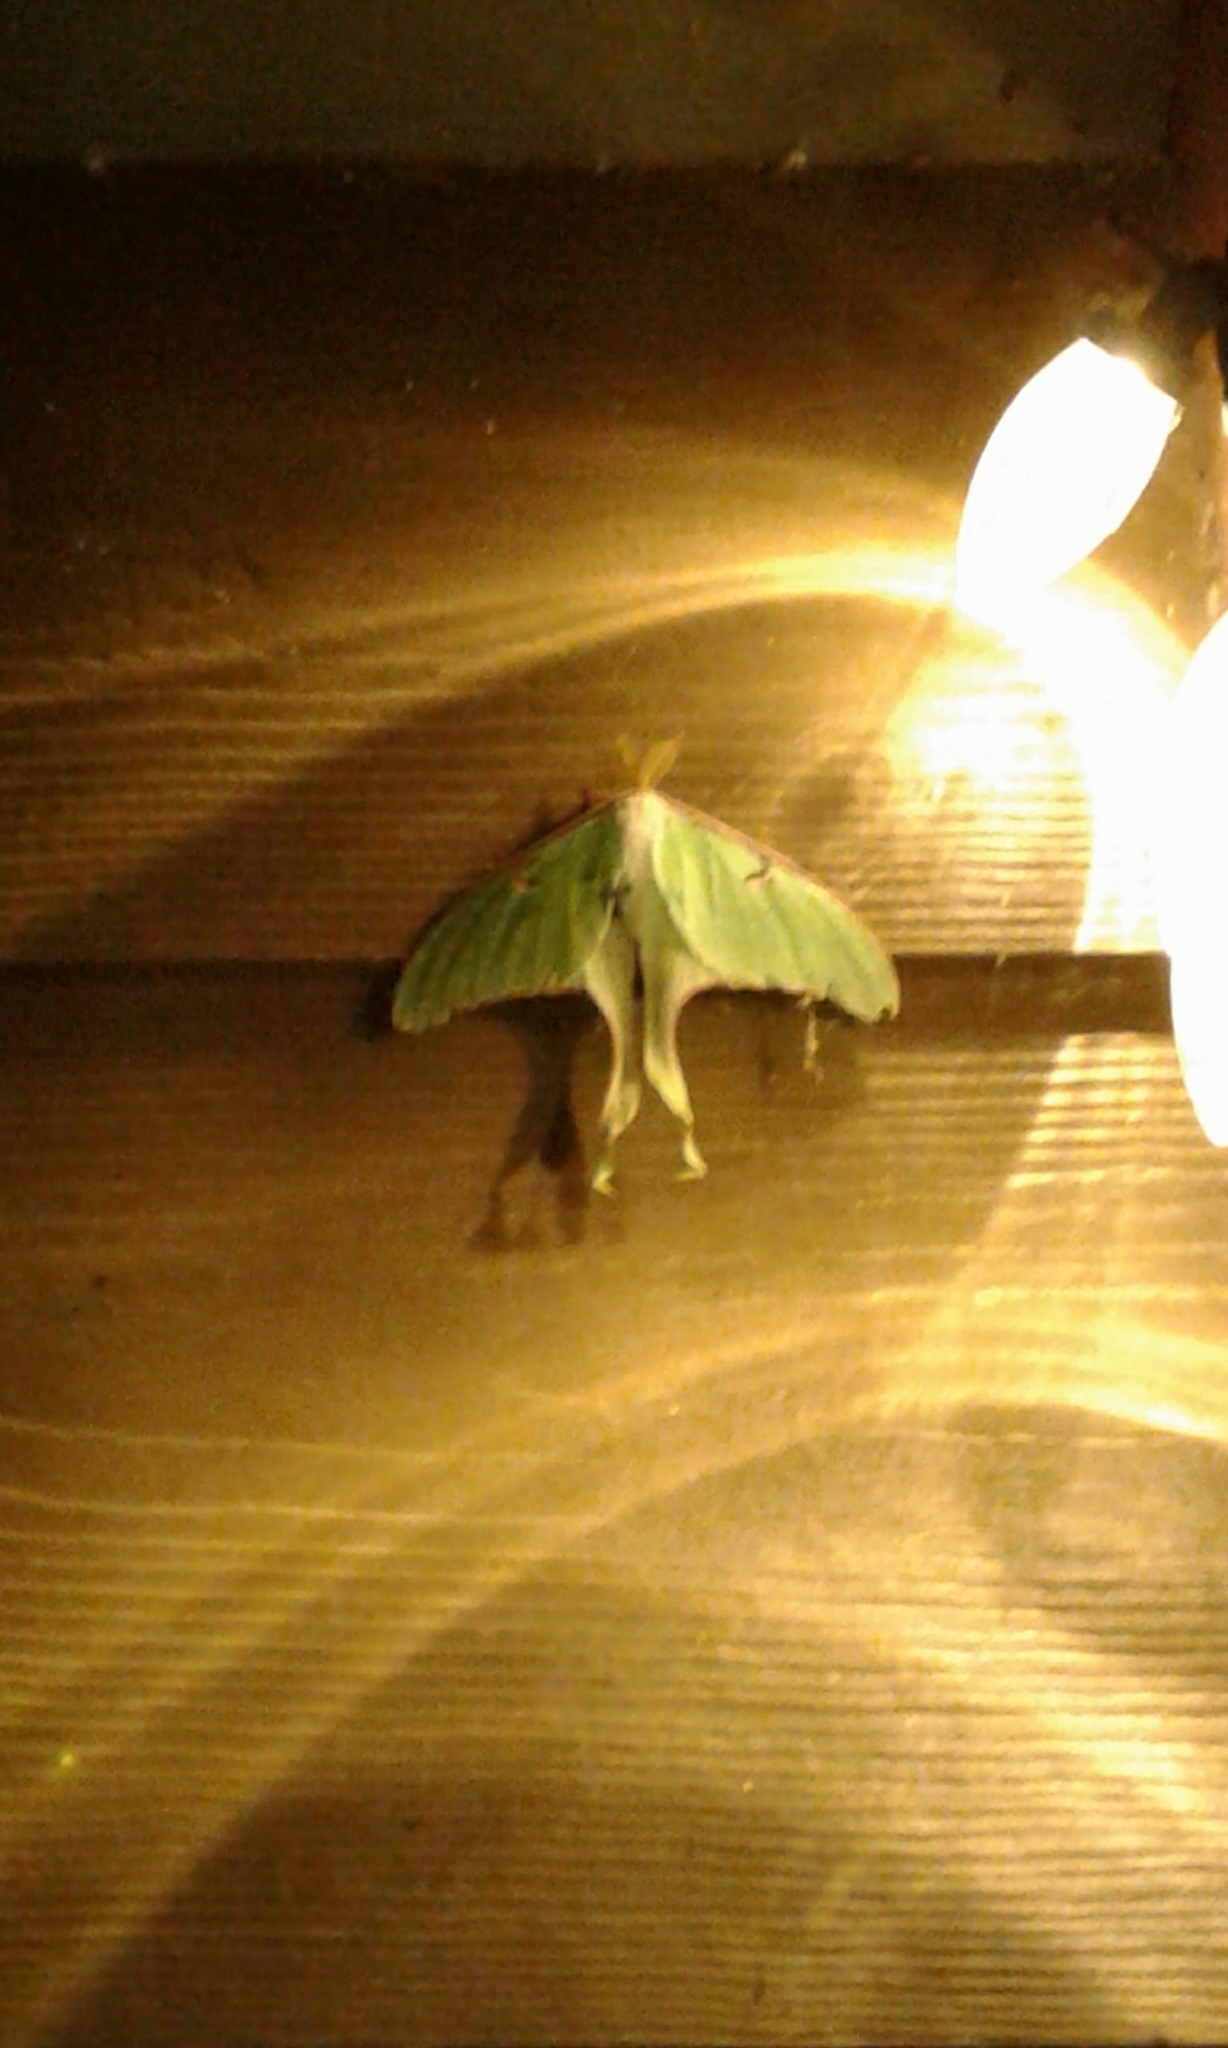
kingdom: Animalia
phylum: Arthropoda
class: Insecta
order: Lepidoptera
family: Saturniidae
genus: Actias
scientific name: Actias luna
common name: Luna moth
